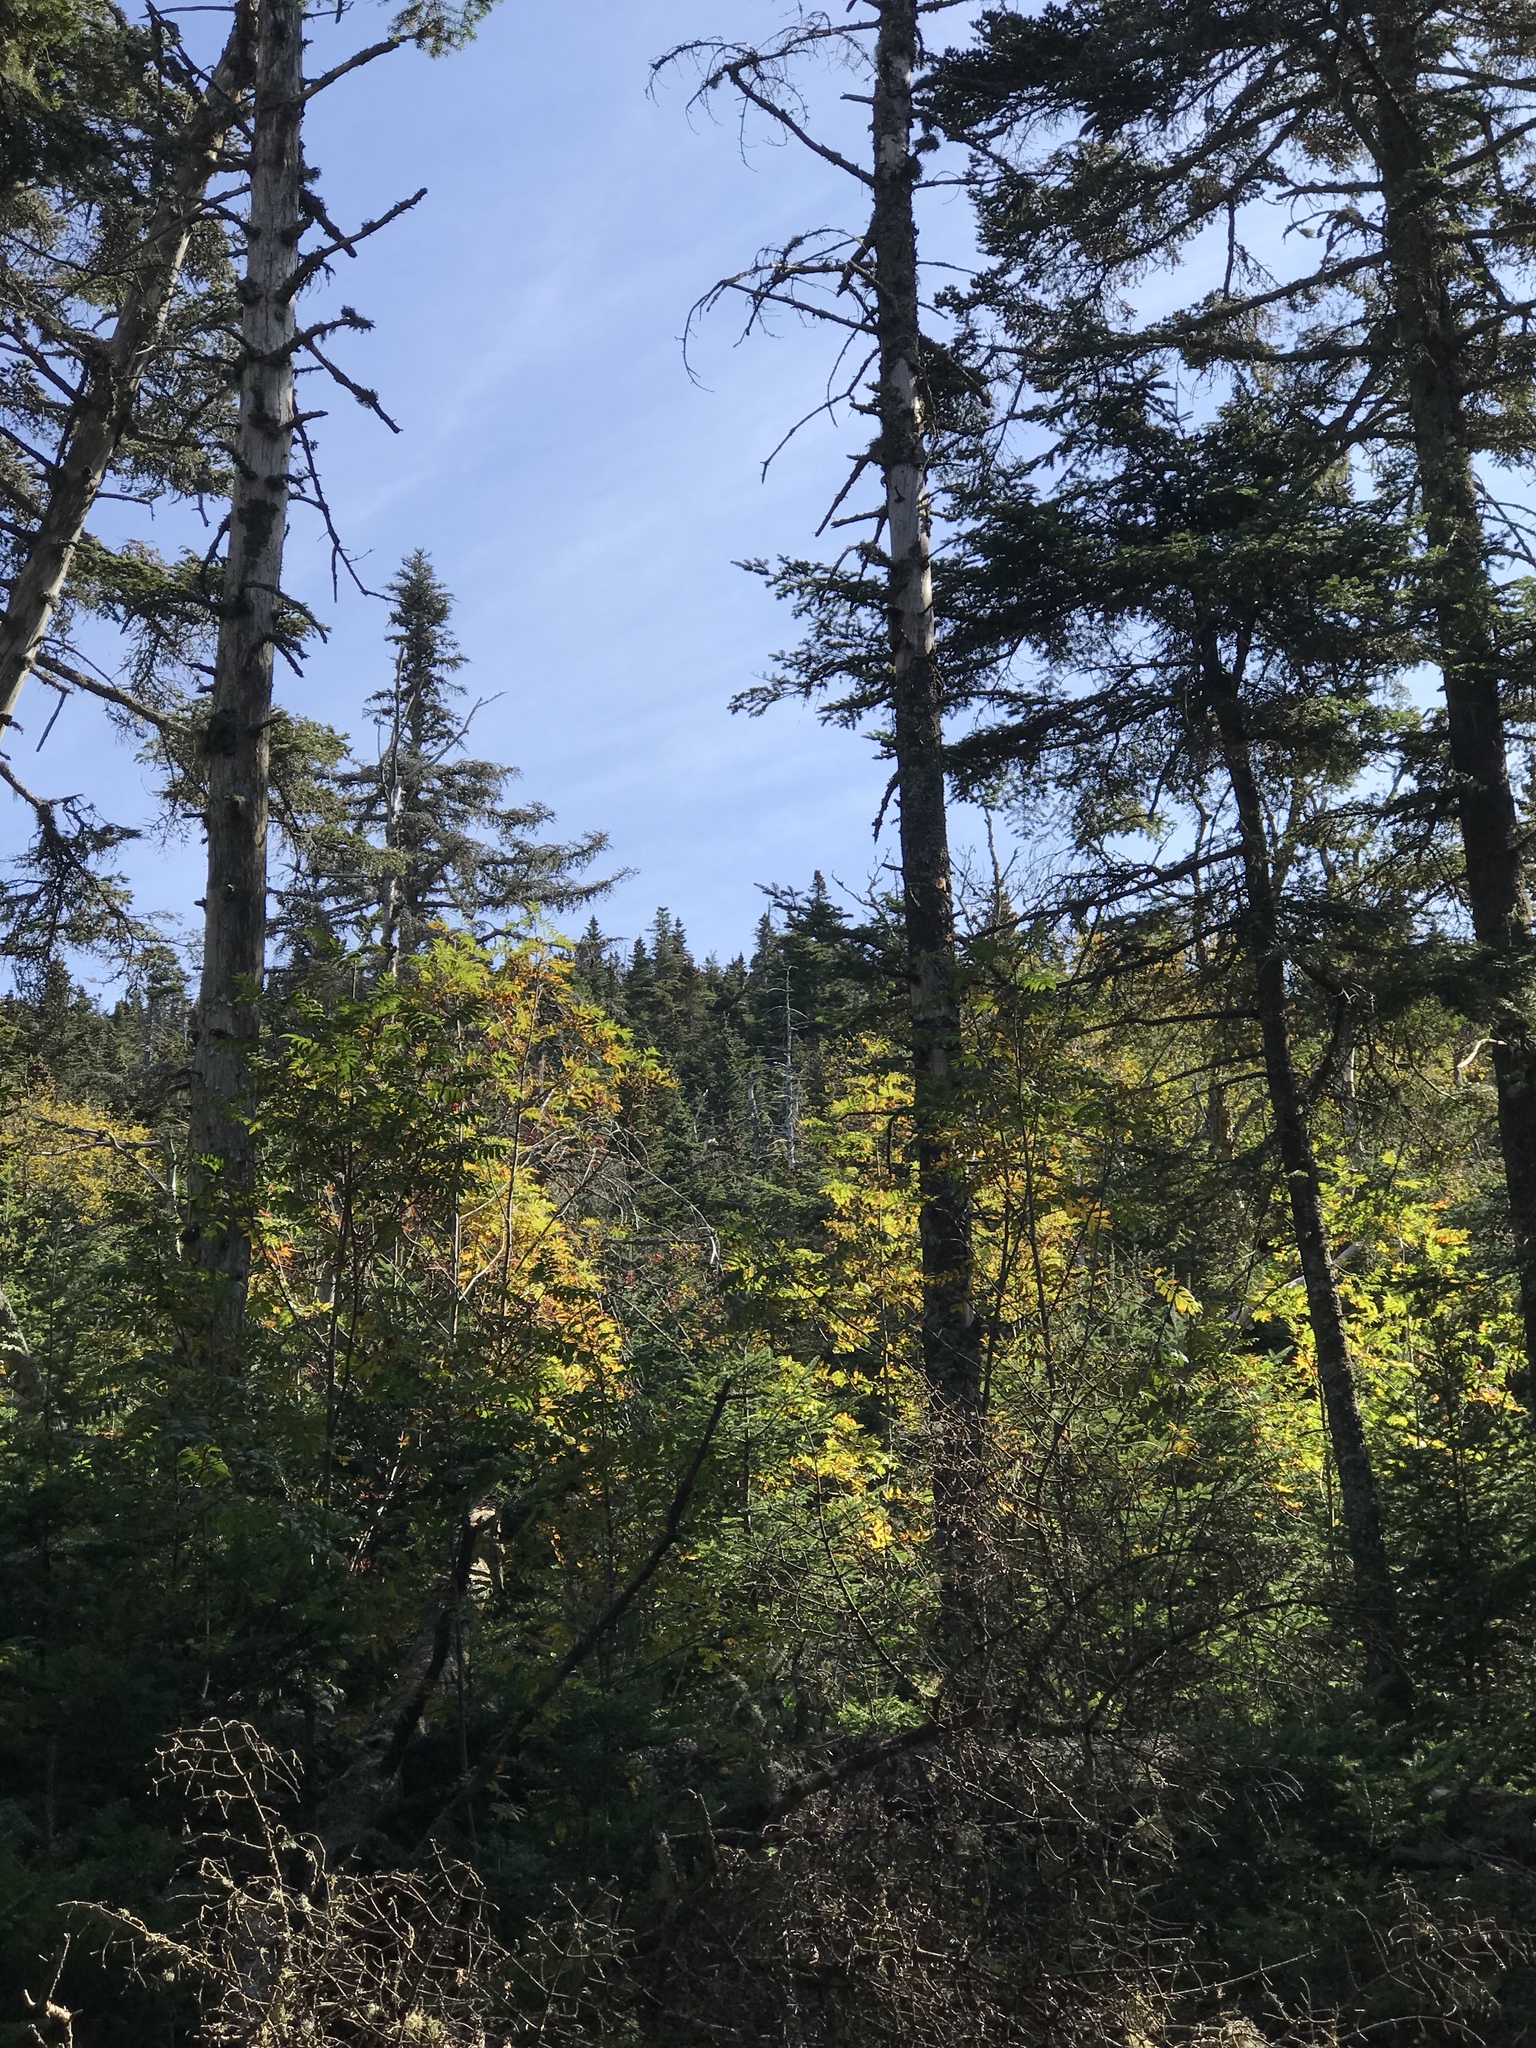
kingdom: Plantae
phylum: Tracheophyta
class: Pinopsida
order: Pinales
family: Pinaceae
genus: Abies
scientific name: Abies balsamea
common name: Balsam fir
